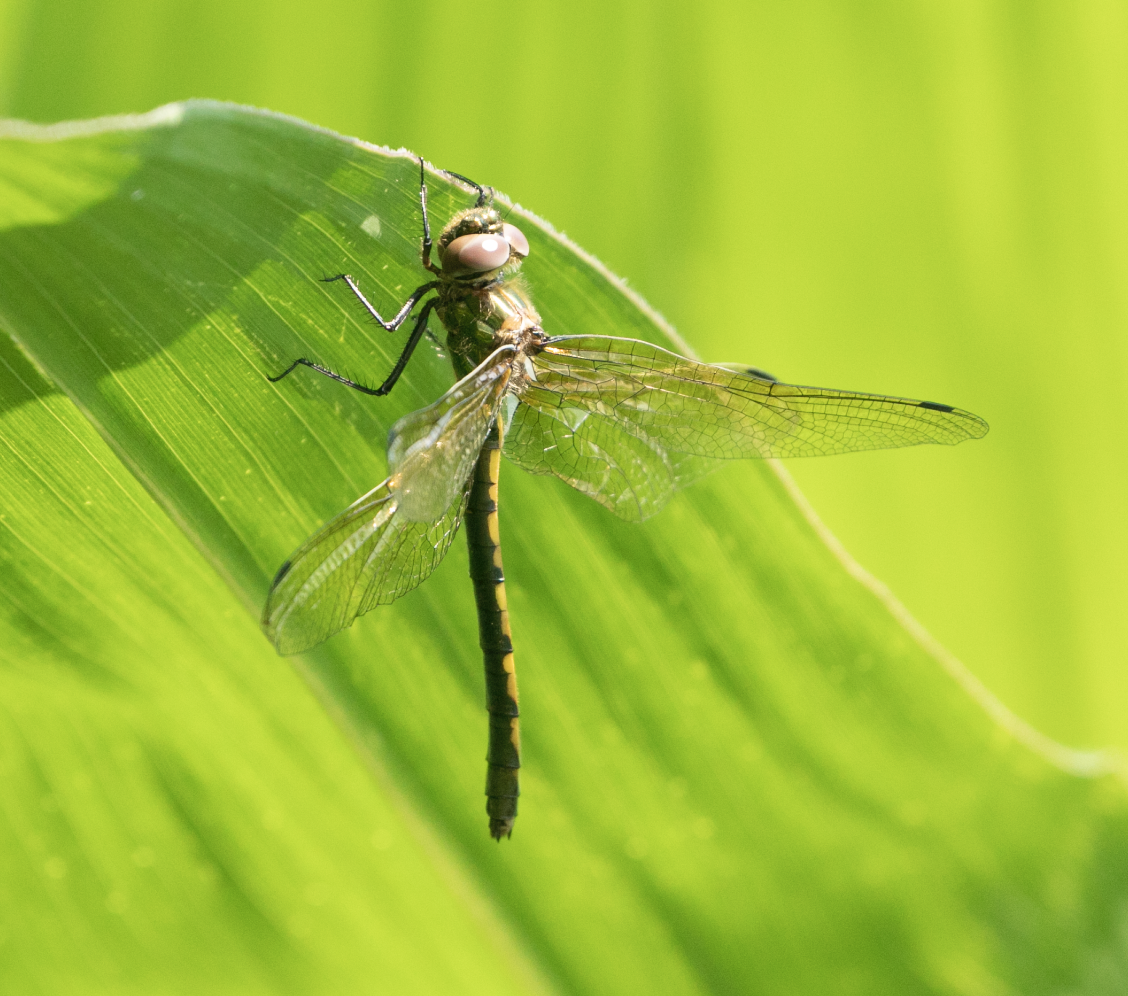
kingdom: Animalia
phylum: Arthropoda
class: Insecta
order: Odonata
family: Corduliidae
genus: Oxygastra
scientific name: Oxygastra curtisii
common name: Orange-spotted emerald
